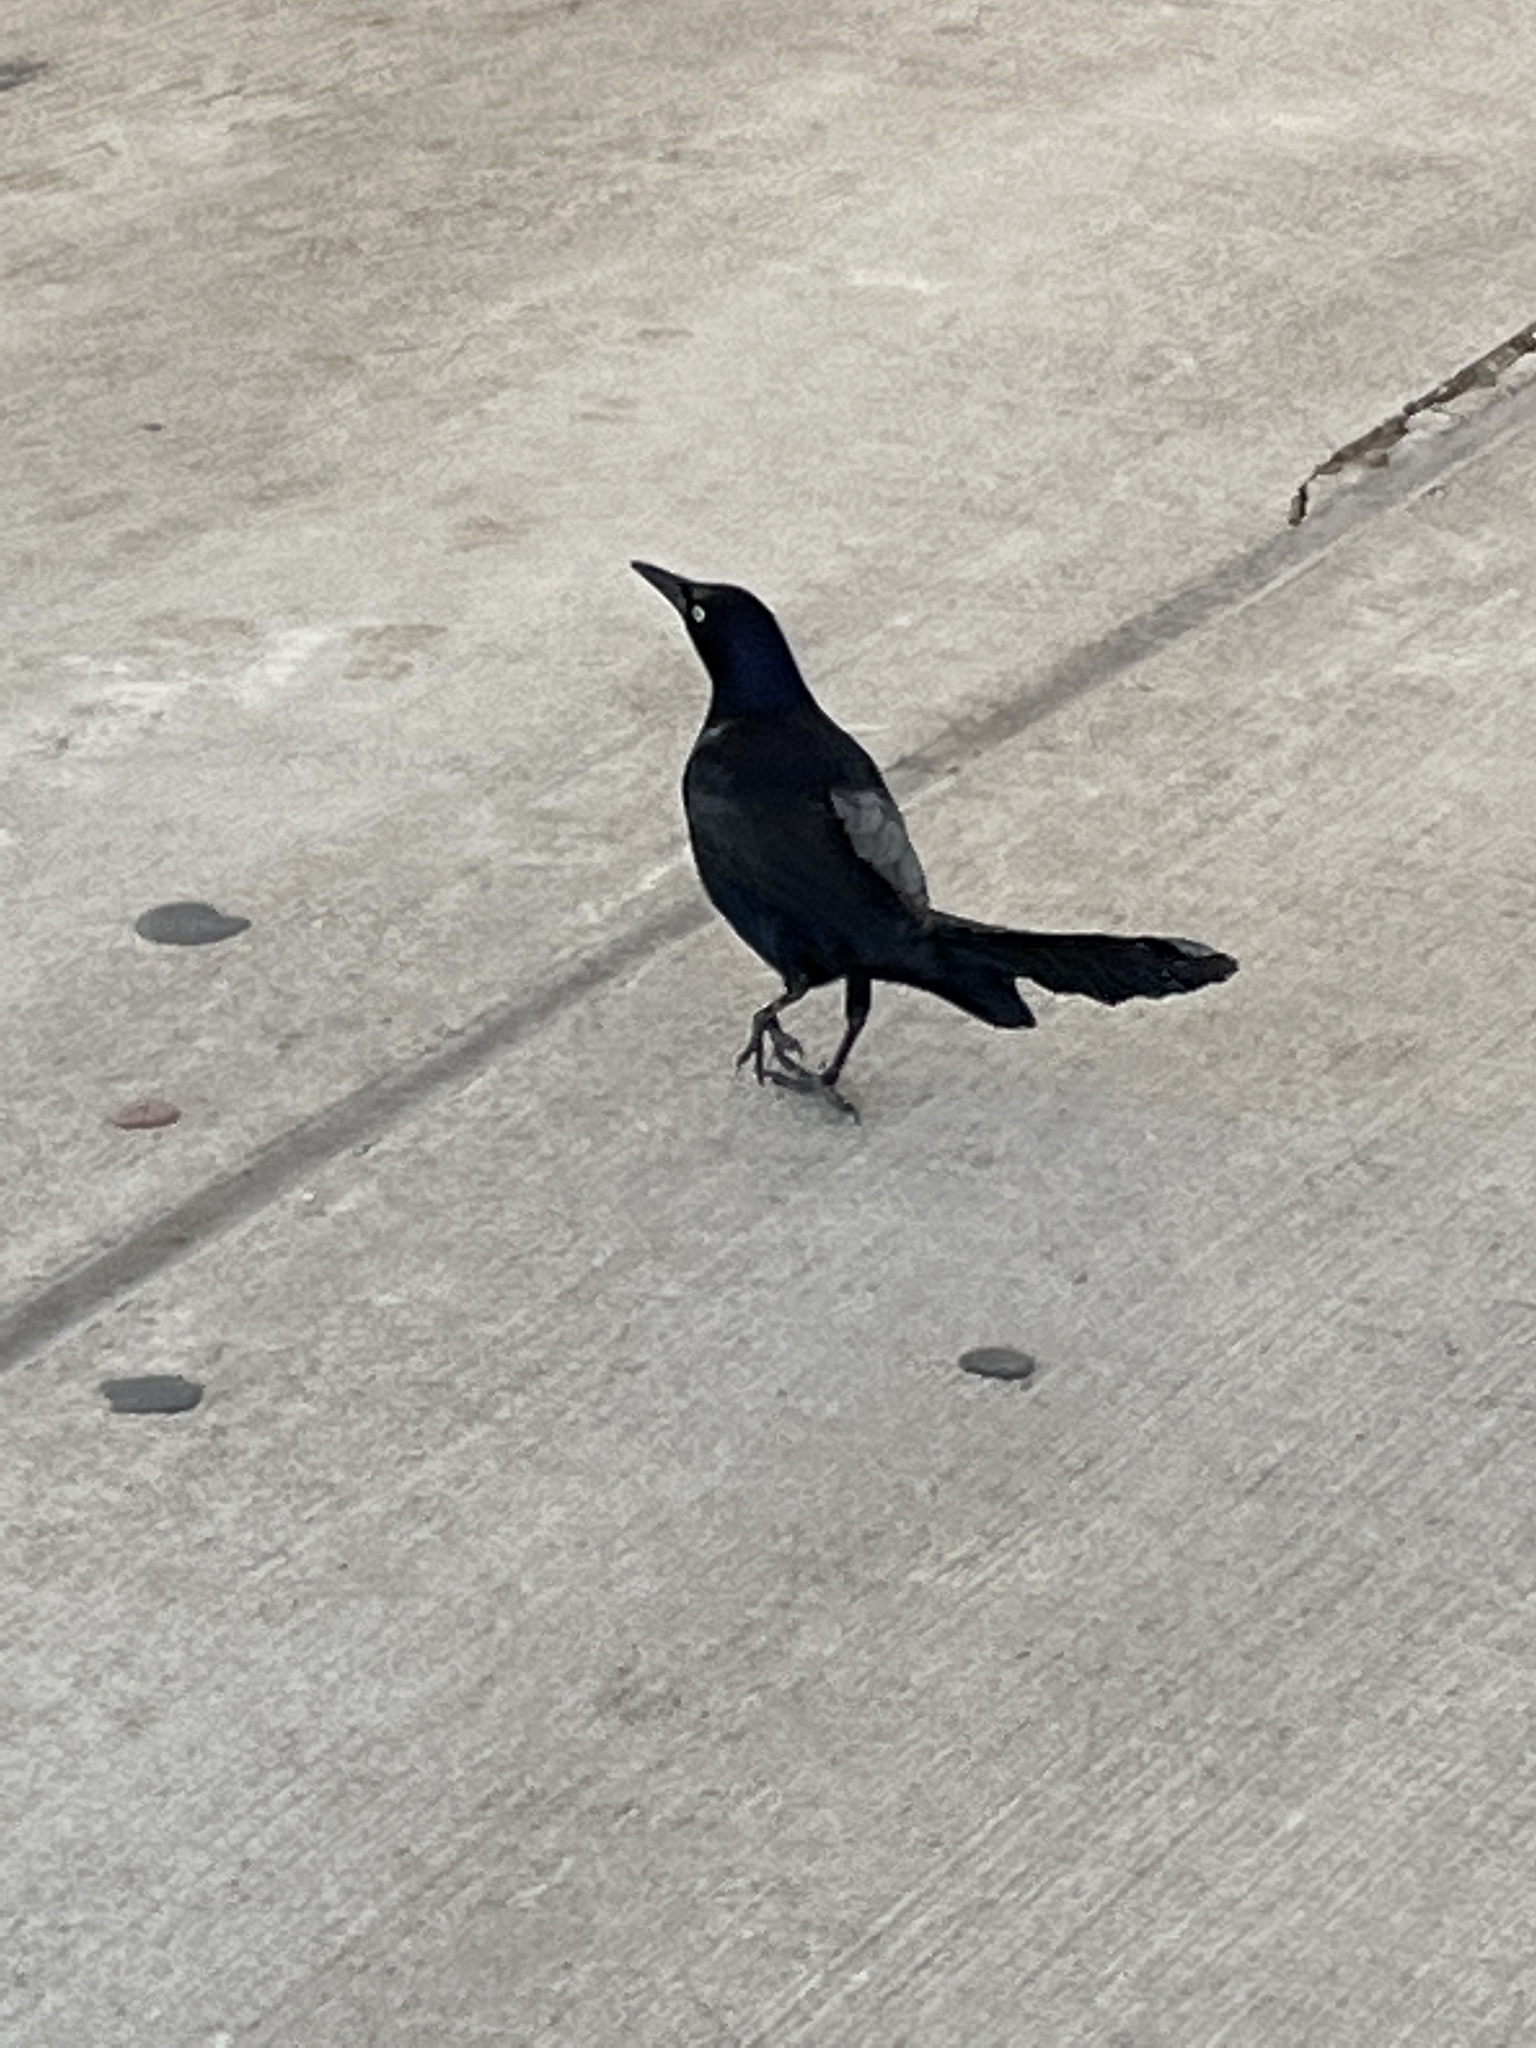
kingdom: Animalia
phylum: Chordata
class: Aves
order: Passeriformes
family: Icteridae
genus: Quiscalus
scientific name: Quiscalus mexicanus
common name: Great-tailed grackle
